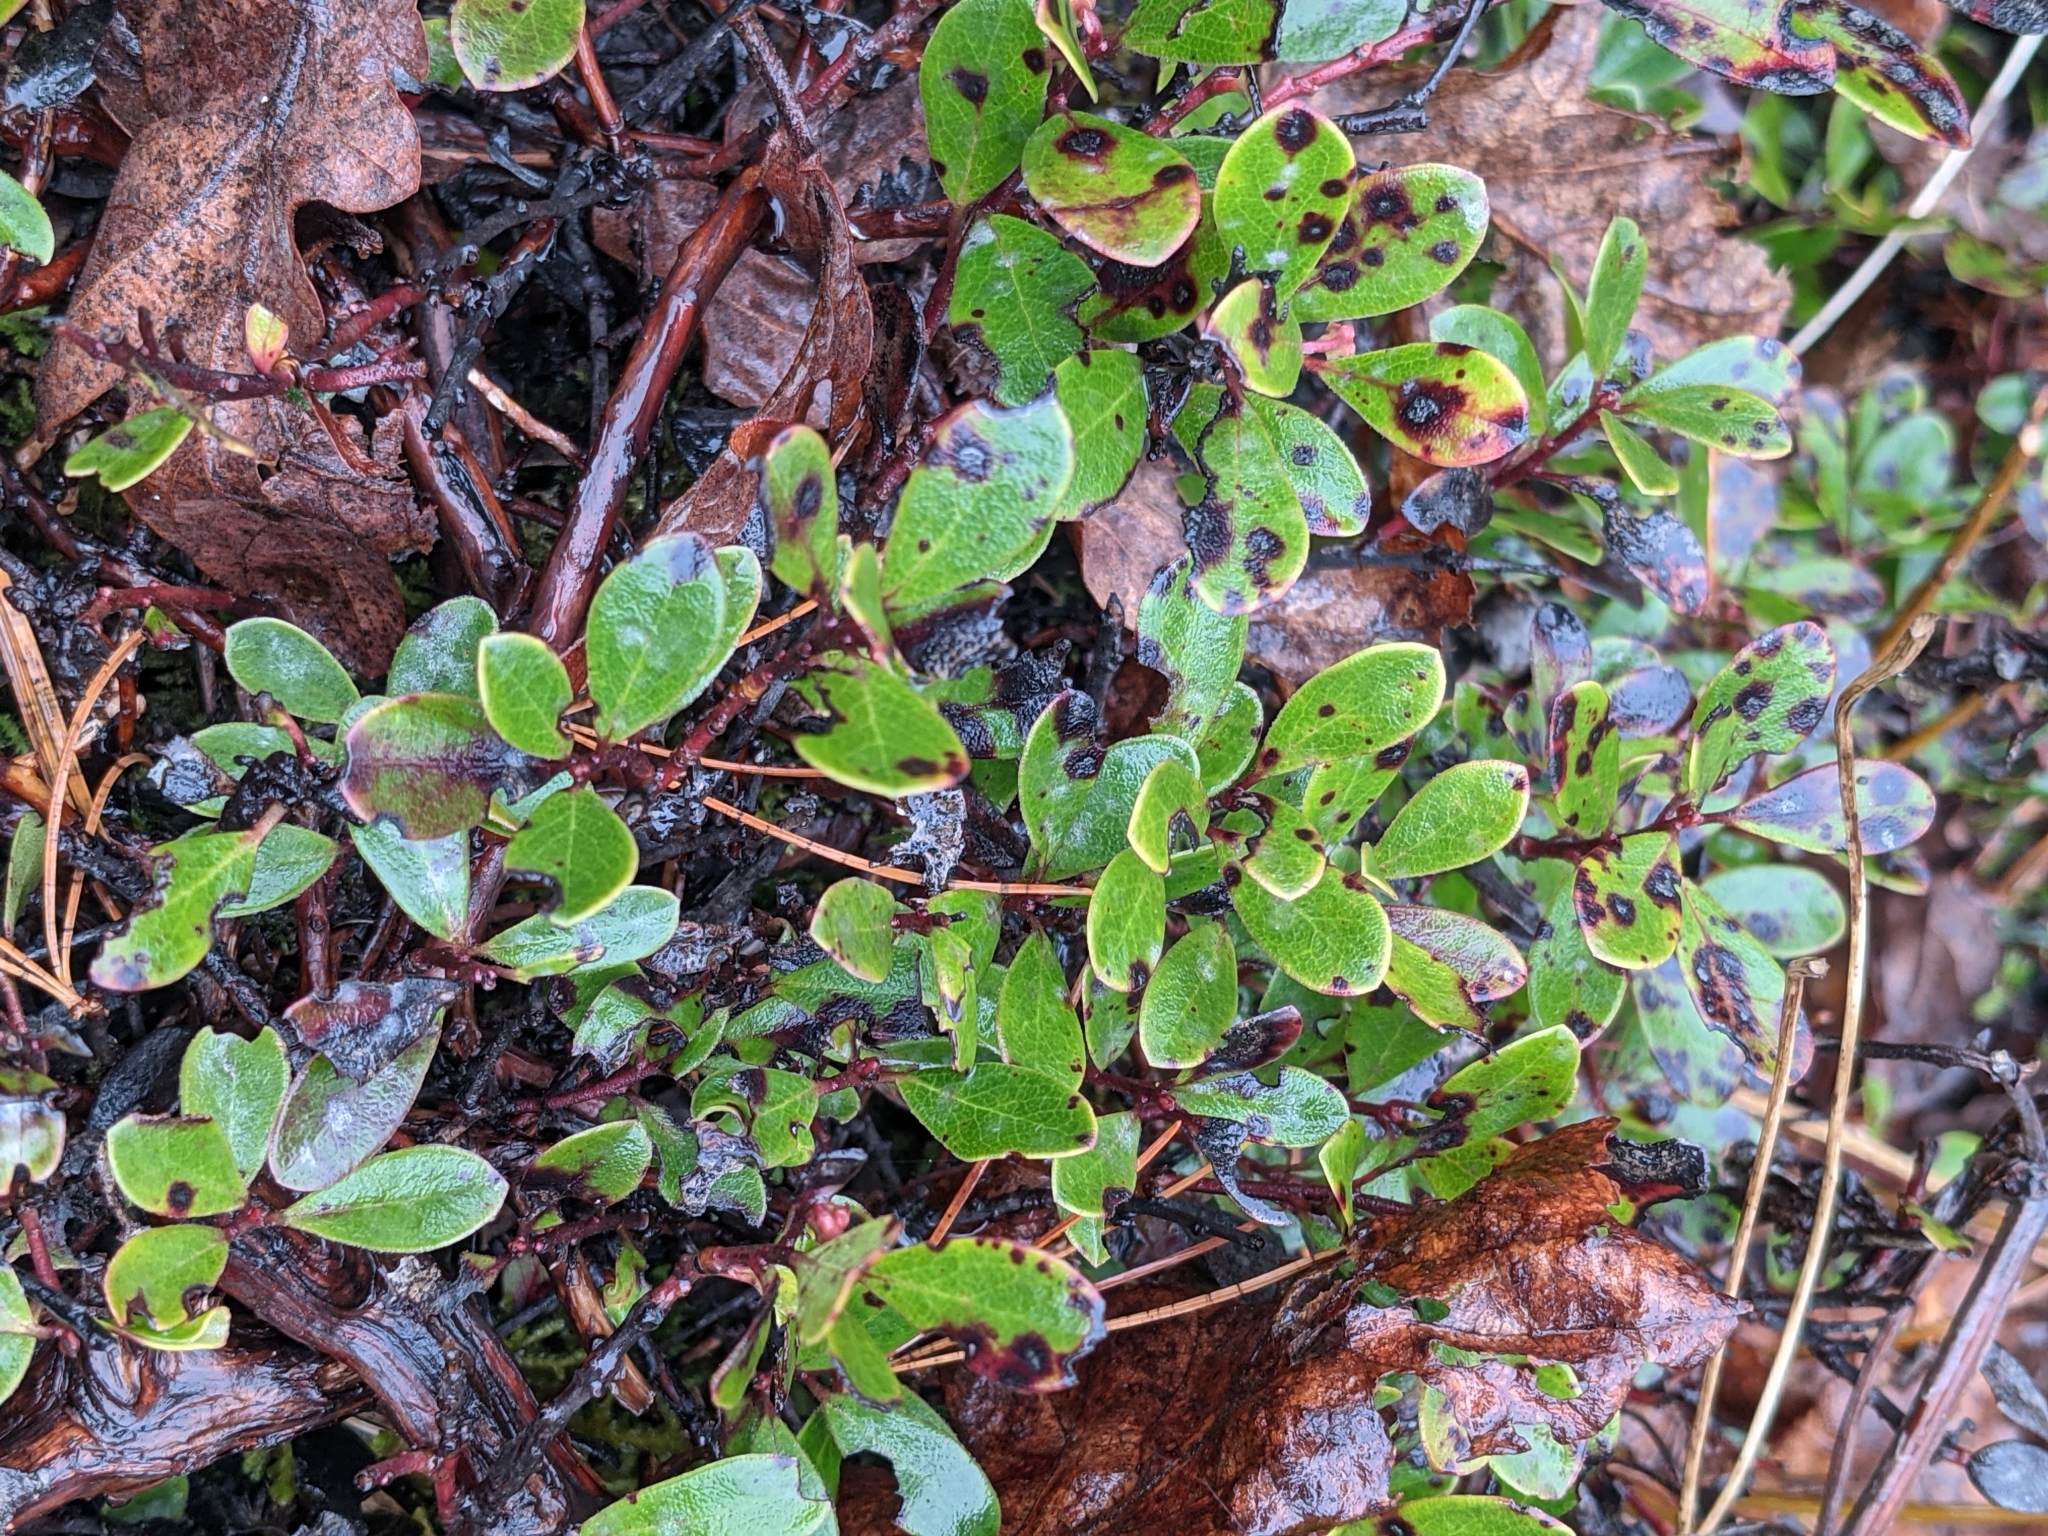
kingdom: Plantae
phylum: Tracheophyta
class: Magnoliopsida
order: Ericales
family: Ericaceae
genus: Arctostaphylos
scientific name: Arctostaphylos uva-ursi
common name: Bearberry
